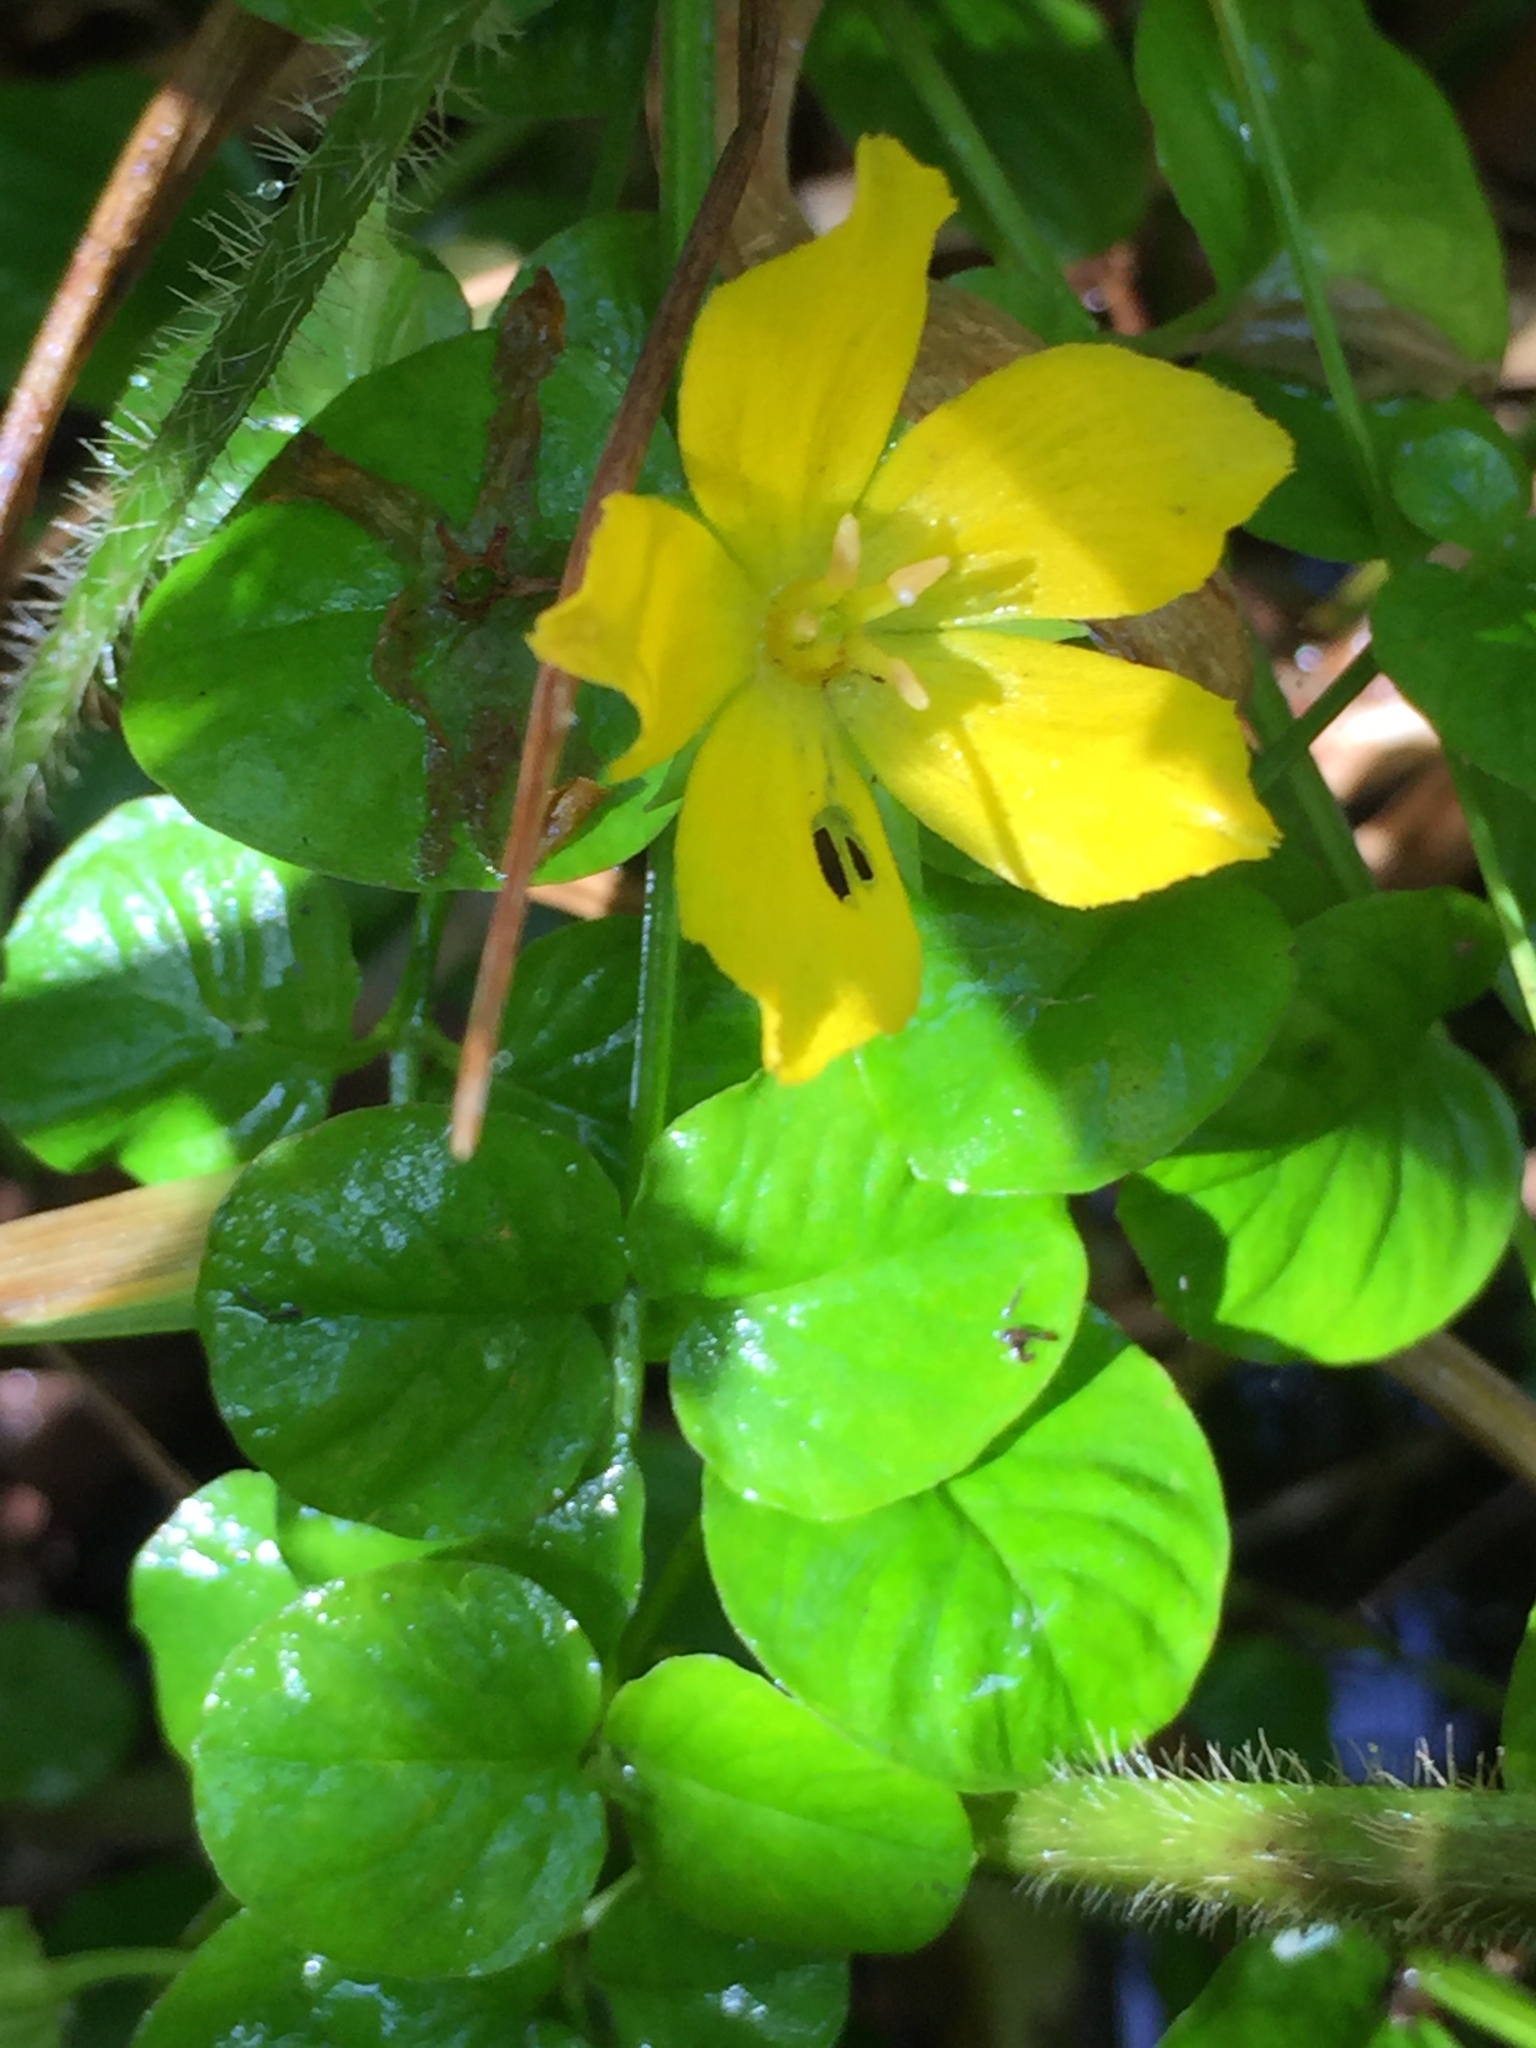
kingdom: Plantae
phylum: Tracheophyta
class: Magnoliopsida
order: Ericales
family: Primulaceae
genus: Lysimachia
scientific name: Lysimachia nummularia
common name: Moneywort
